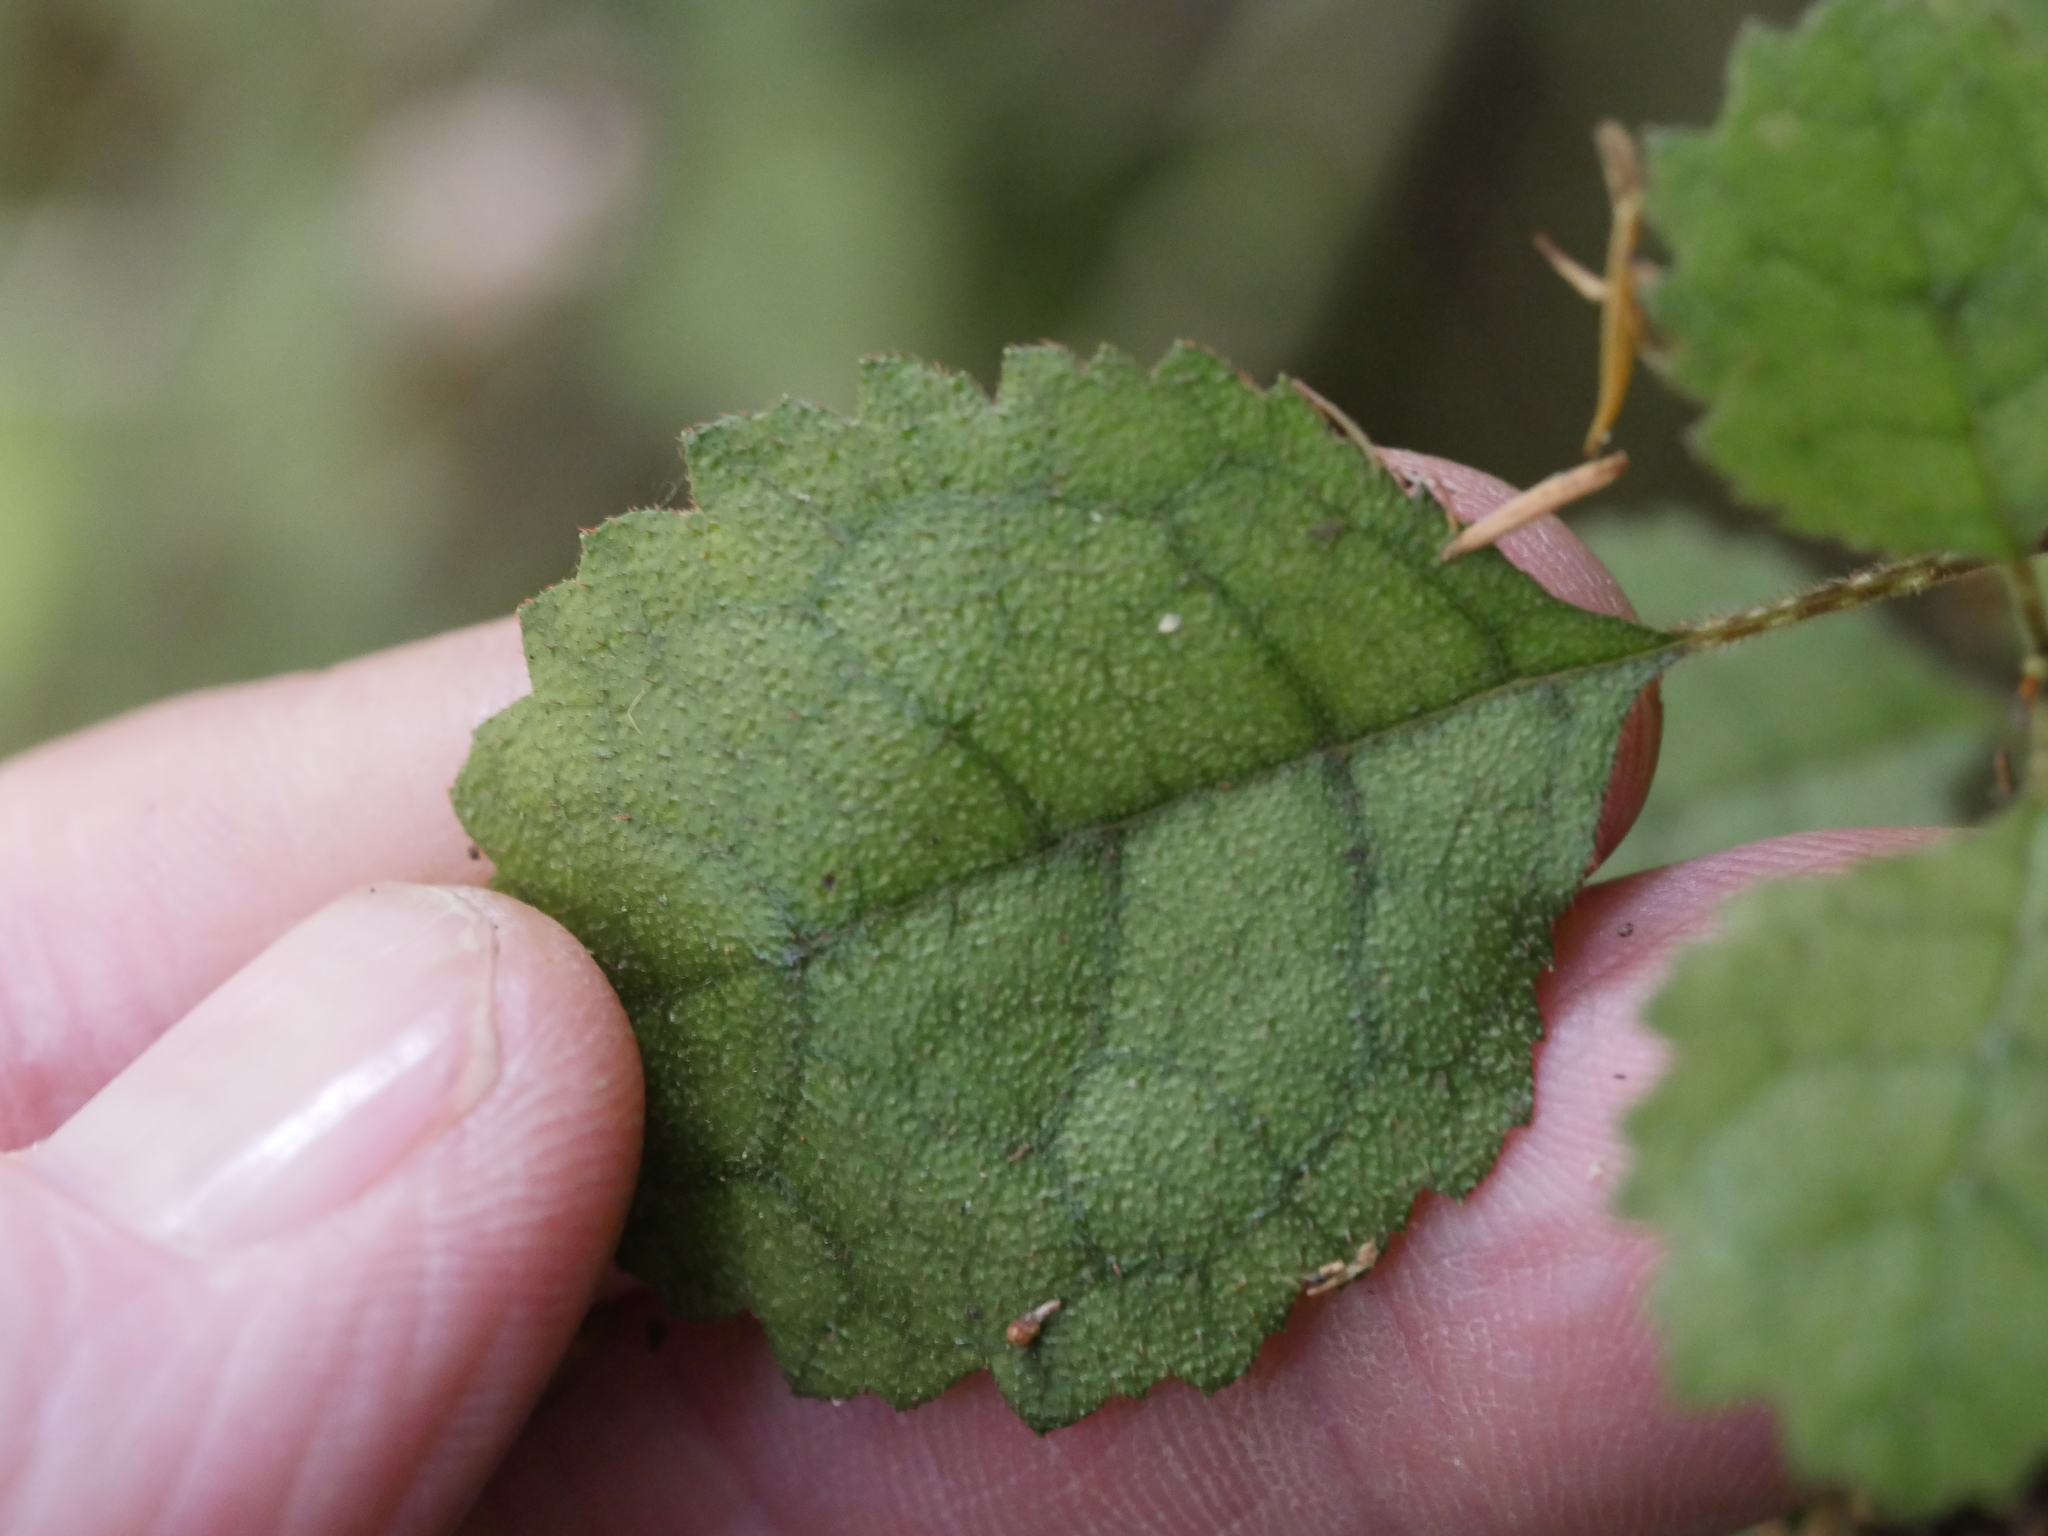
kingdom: Plantae
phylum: Tracheophyta
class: Magnoliopsida
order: Lamiales
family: Gesneriaceae
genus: Rhabdothamnus
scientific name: Rhabdothamnus solandri
